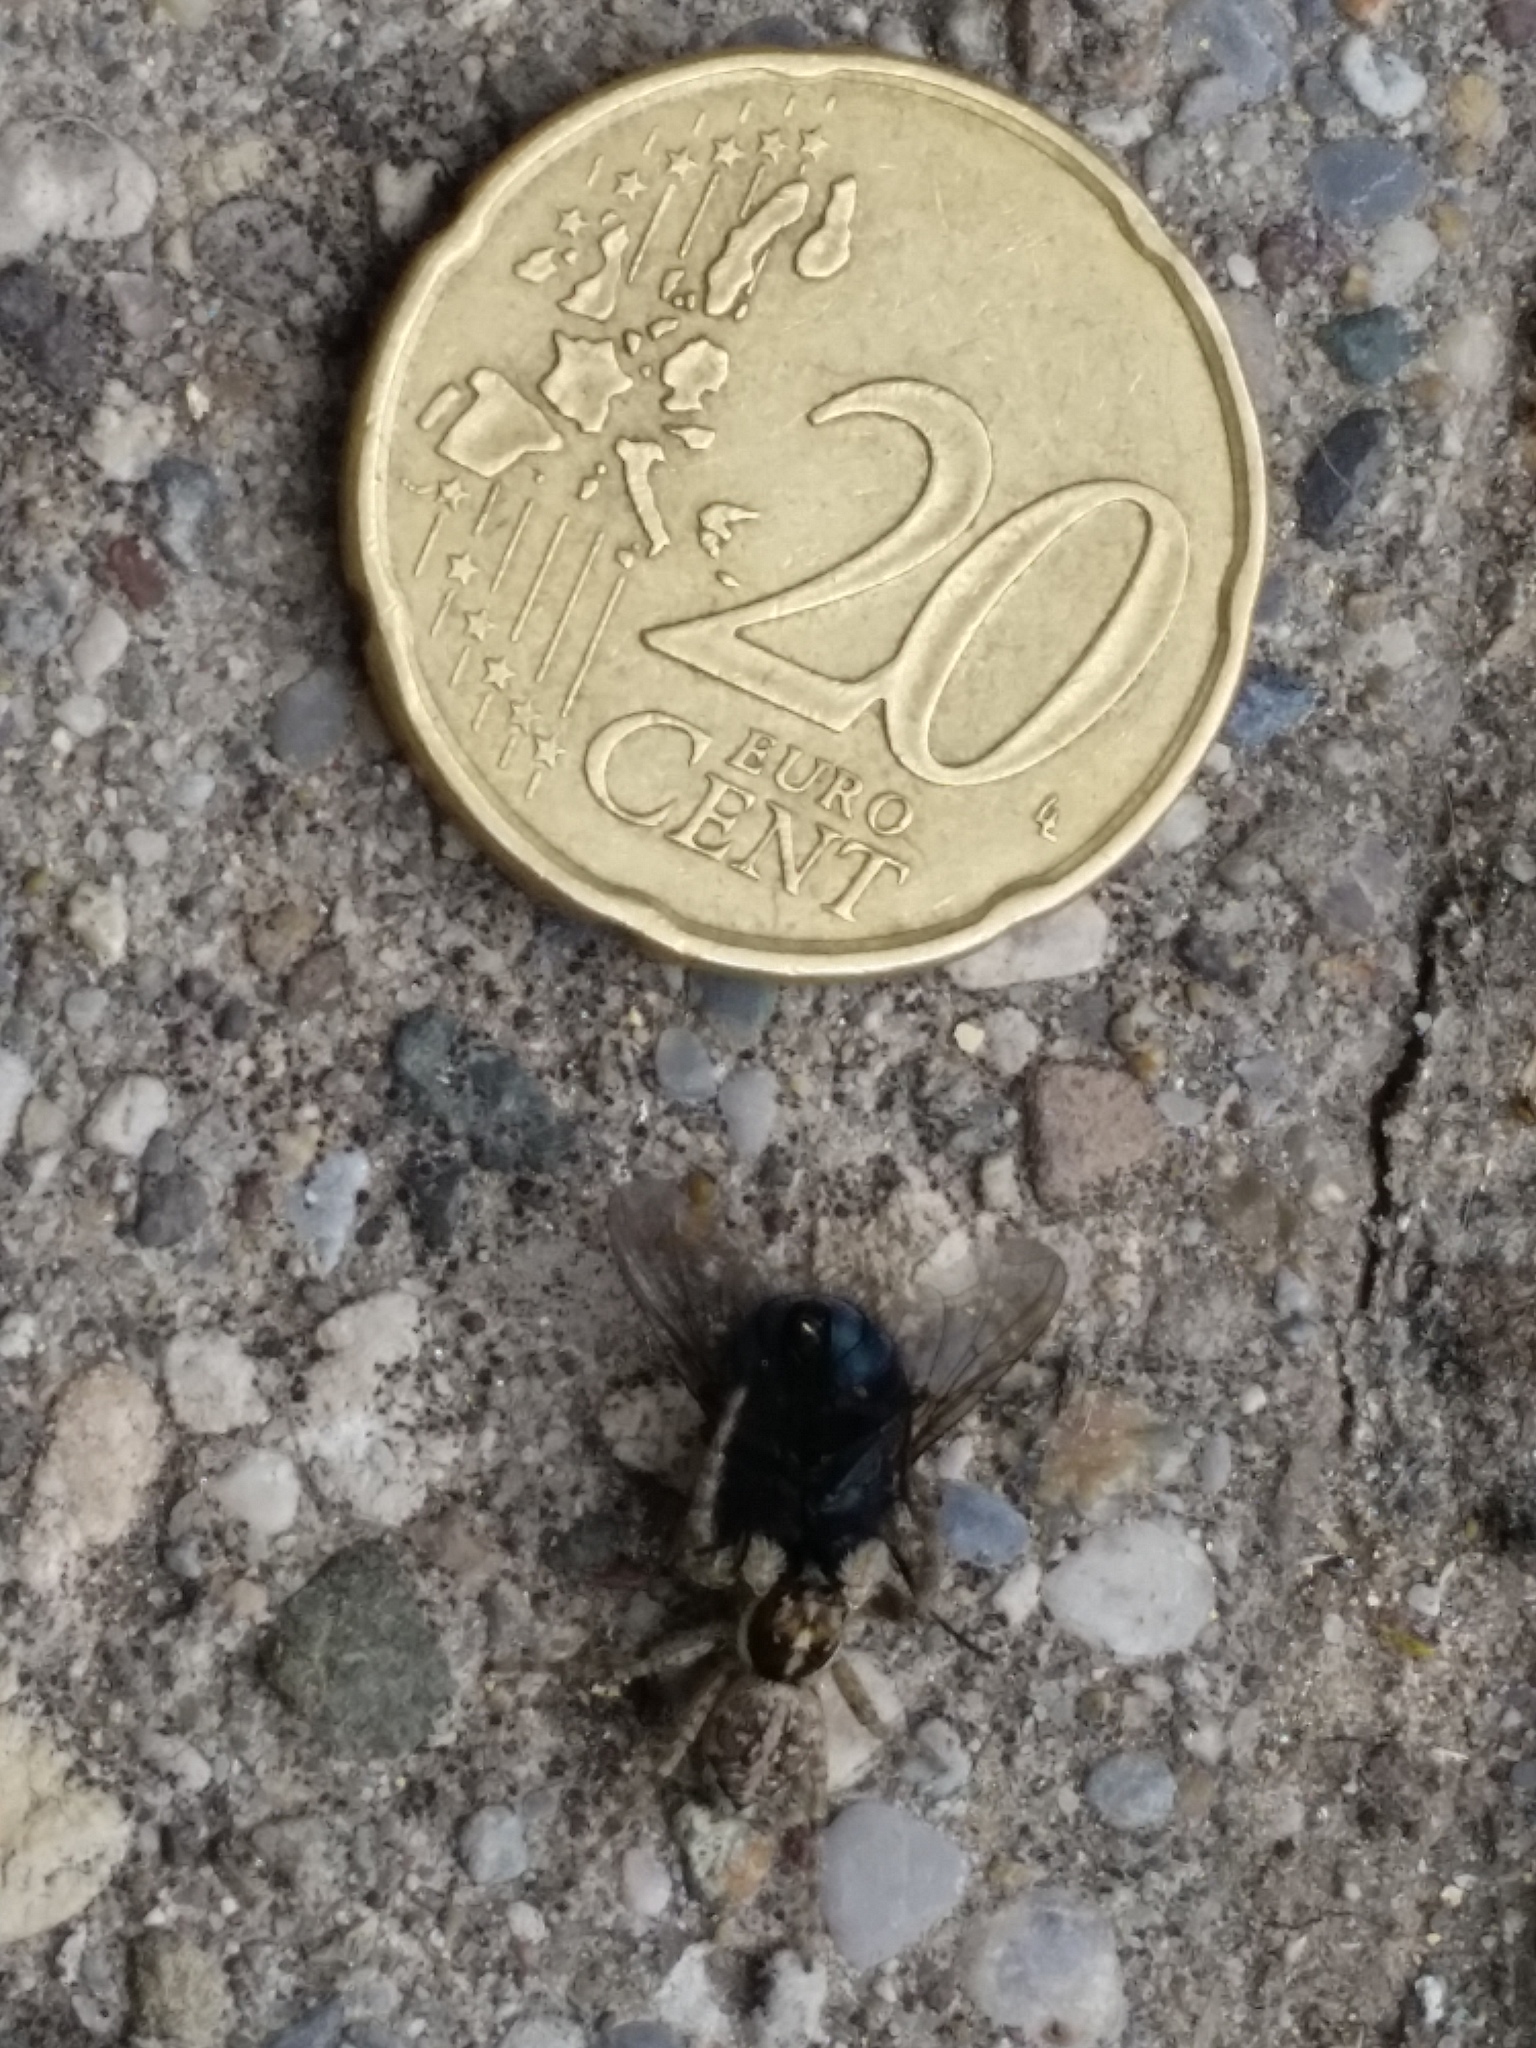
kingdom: Animalia
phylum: Arthropoda
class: Arachnida
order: Araneae
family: Salticidae
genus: Menemerus
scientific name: Menemerus semilimbatus
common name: Jumping spider
